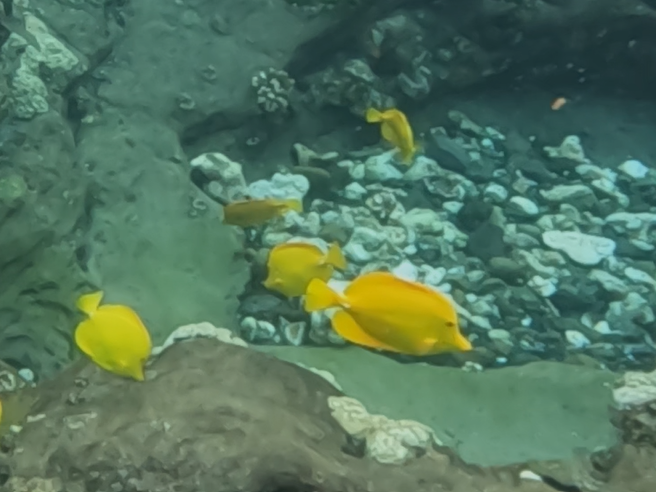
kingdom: Animalia
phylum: Chordata
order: Perciformes
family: Acanthuridae
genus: Zebrasoma
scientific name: Zebrasoma flavescens
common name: Yellow tang
